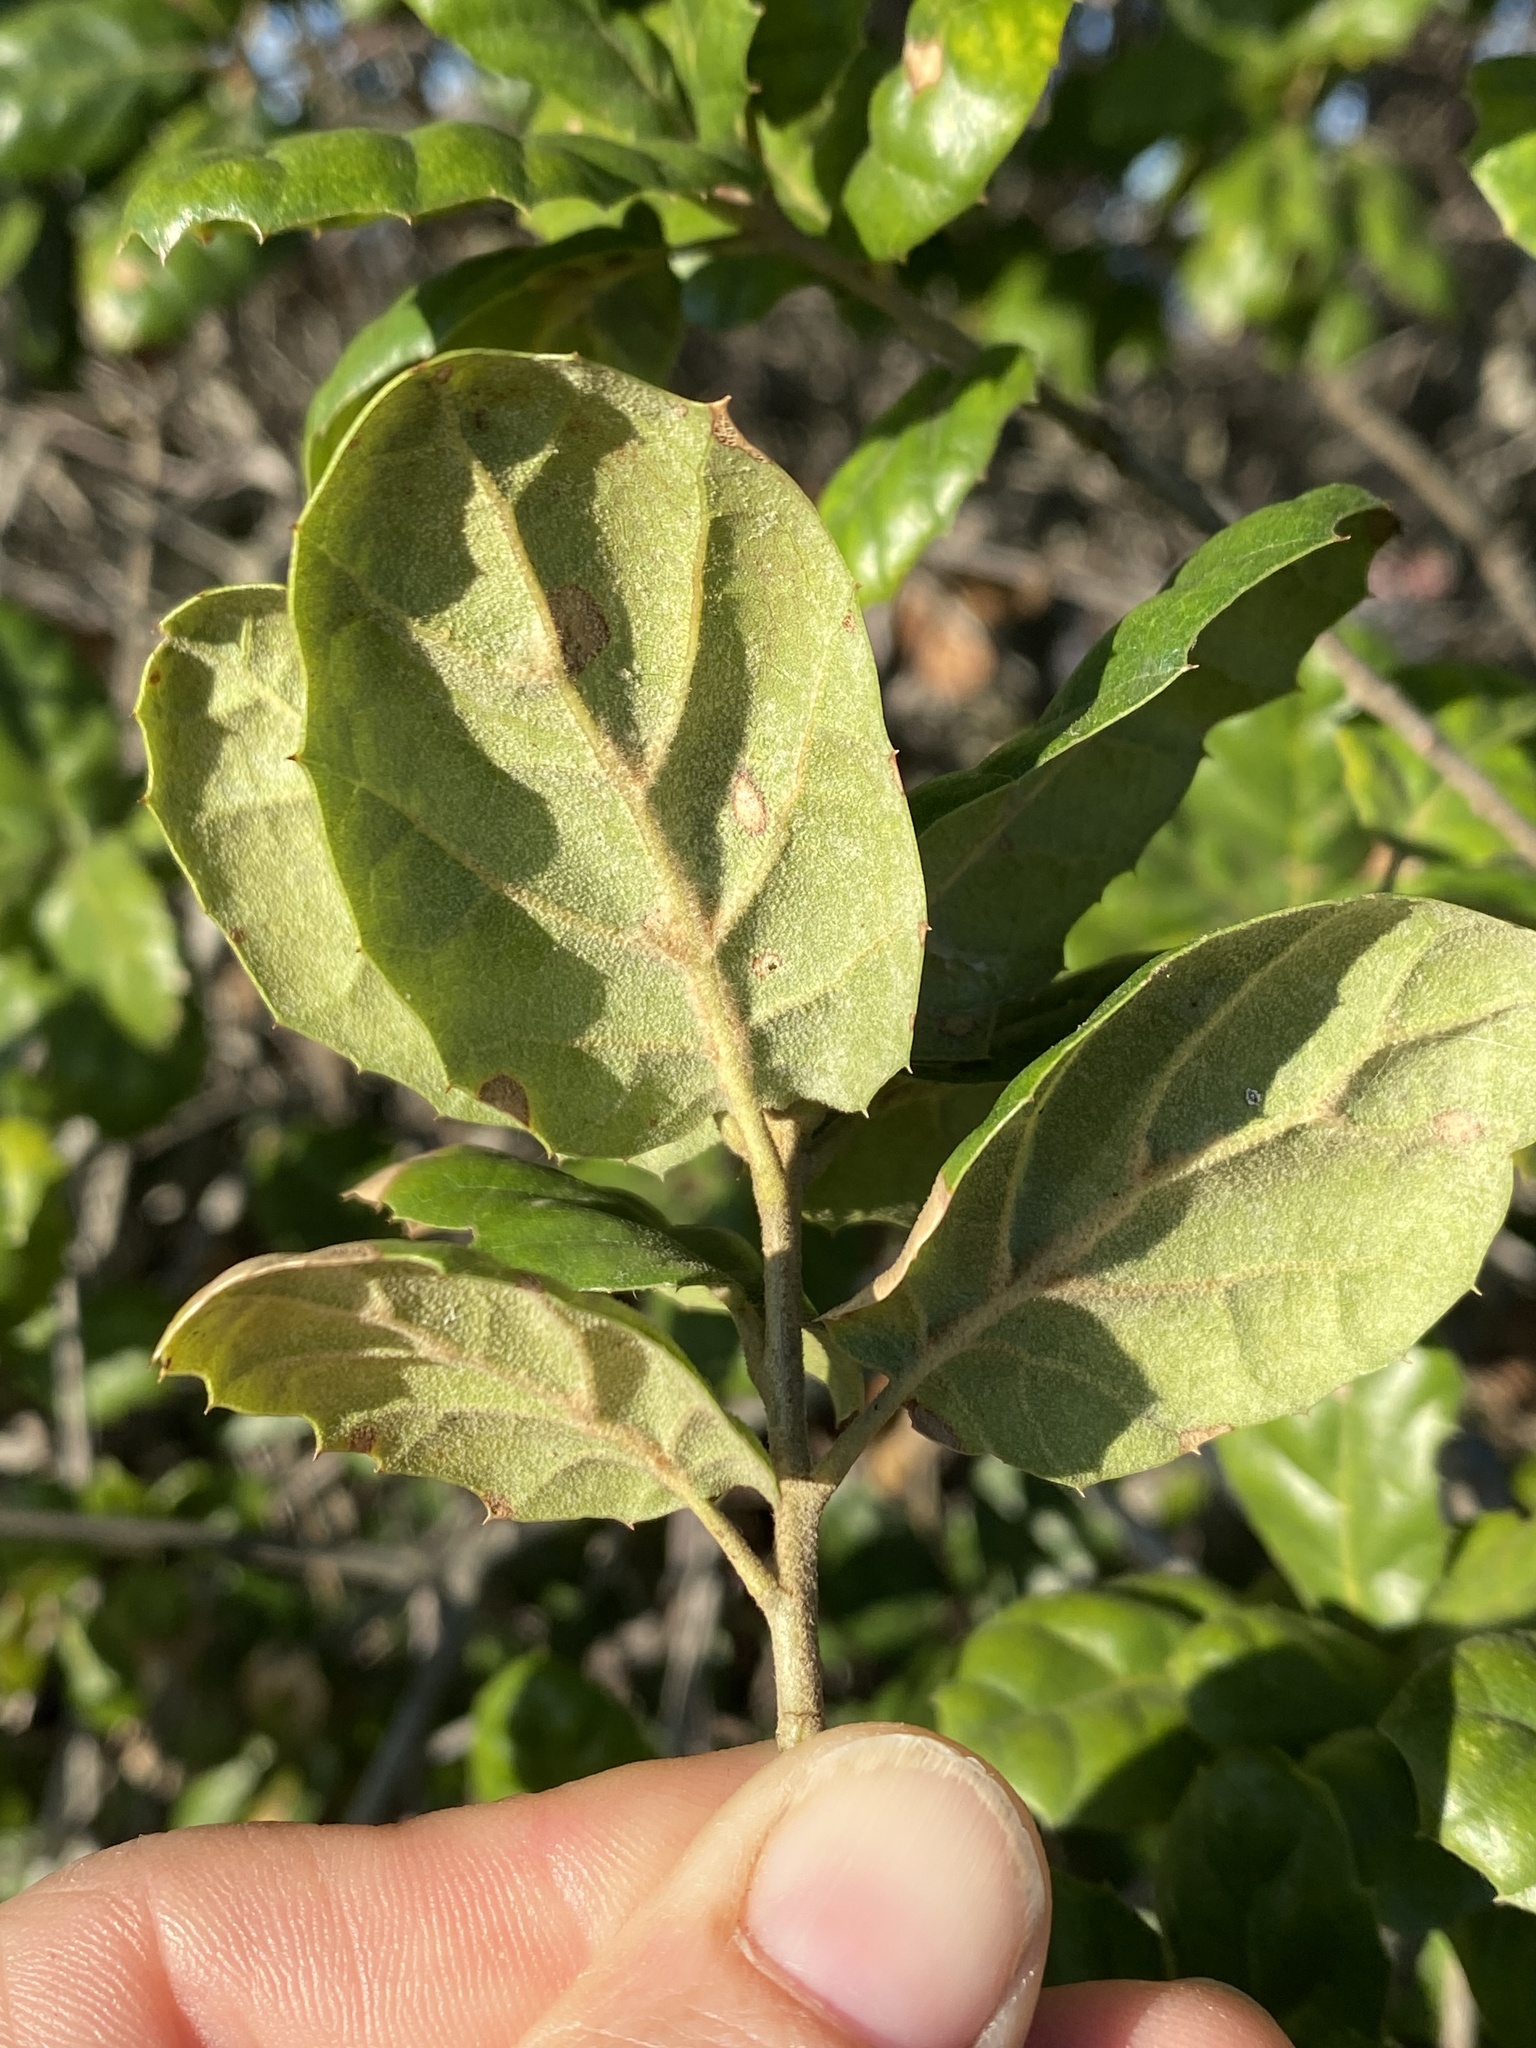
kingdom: Plantae
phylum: Tracheophyta
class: Magnoliopsida
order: Fagales
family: Fagaceae
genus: Quercus
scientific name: Quercus agrifolia
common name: California live oak
